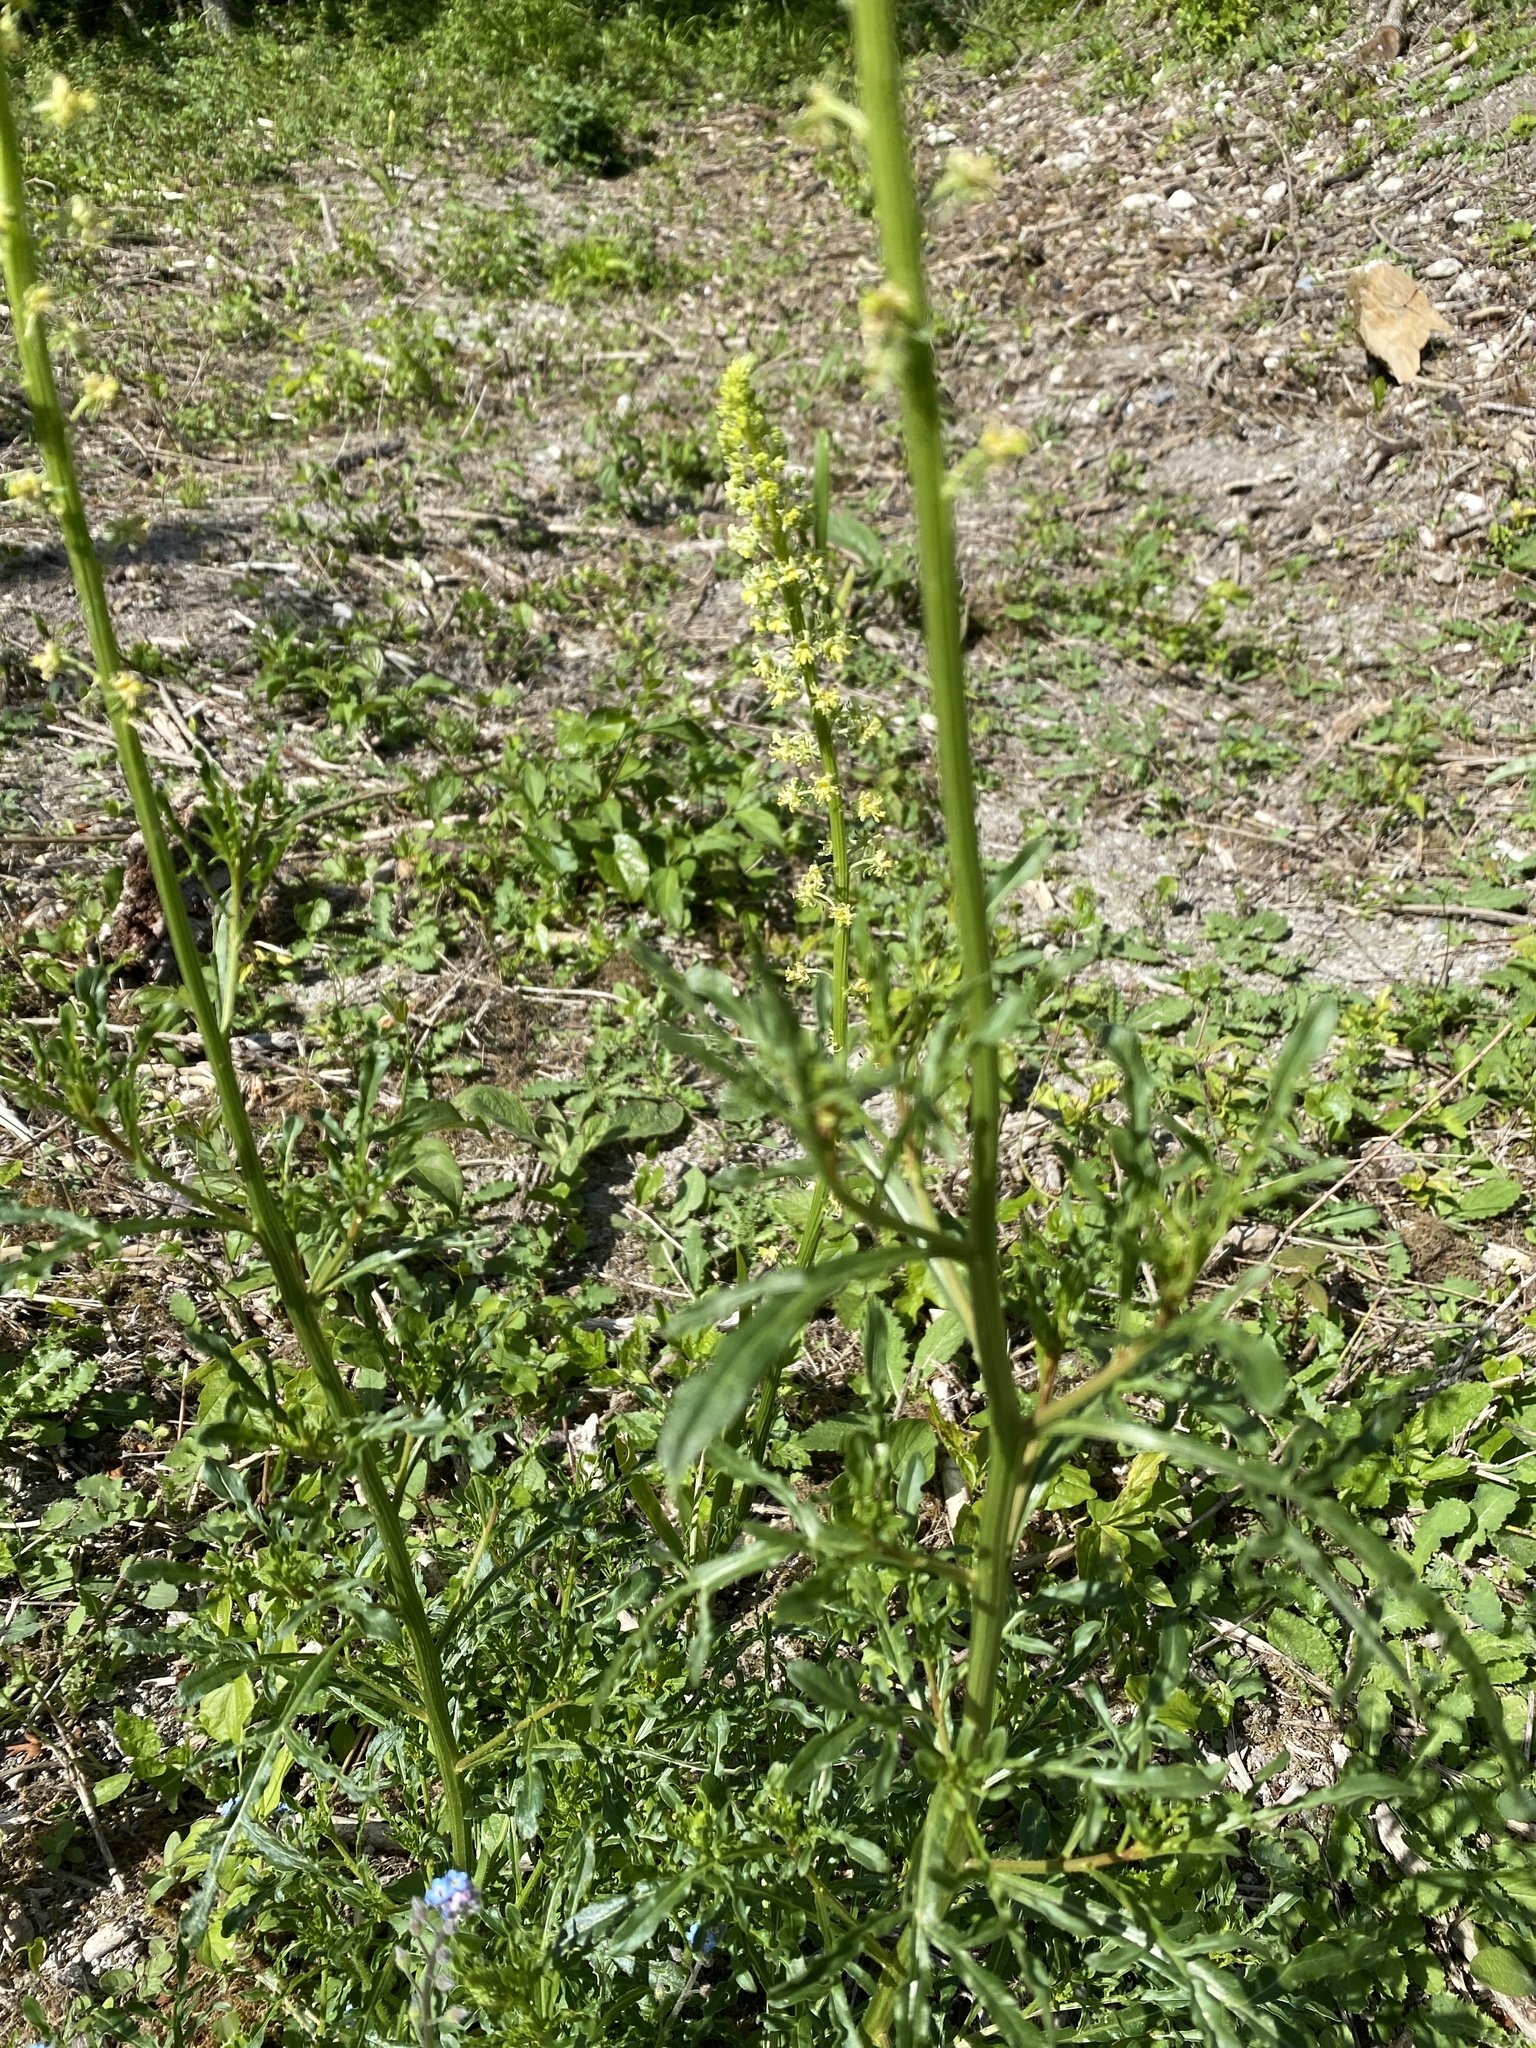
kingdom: Plantae
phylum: Tracheophyta
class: Magnoliopsida
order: Brassicales
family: Resedaceae
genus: Reseda
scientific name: Reseda lutea
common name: Wild mignonette
